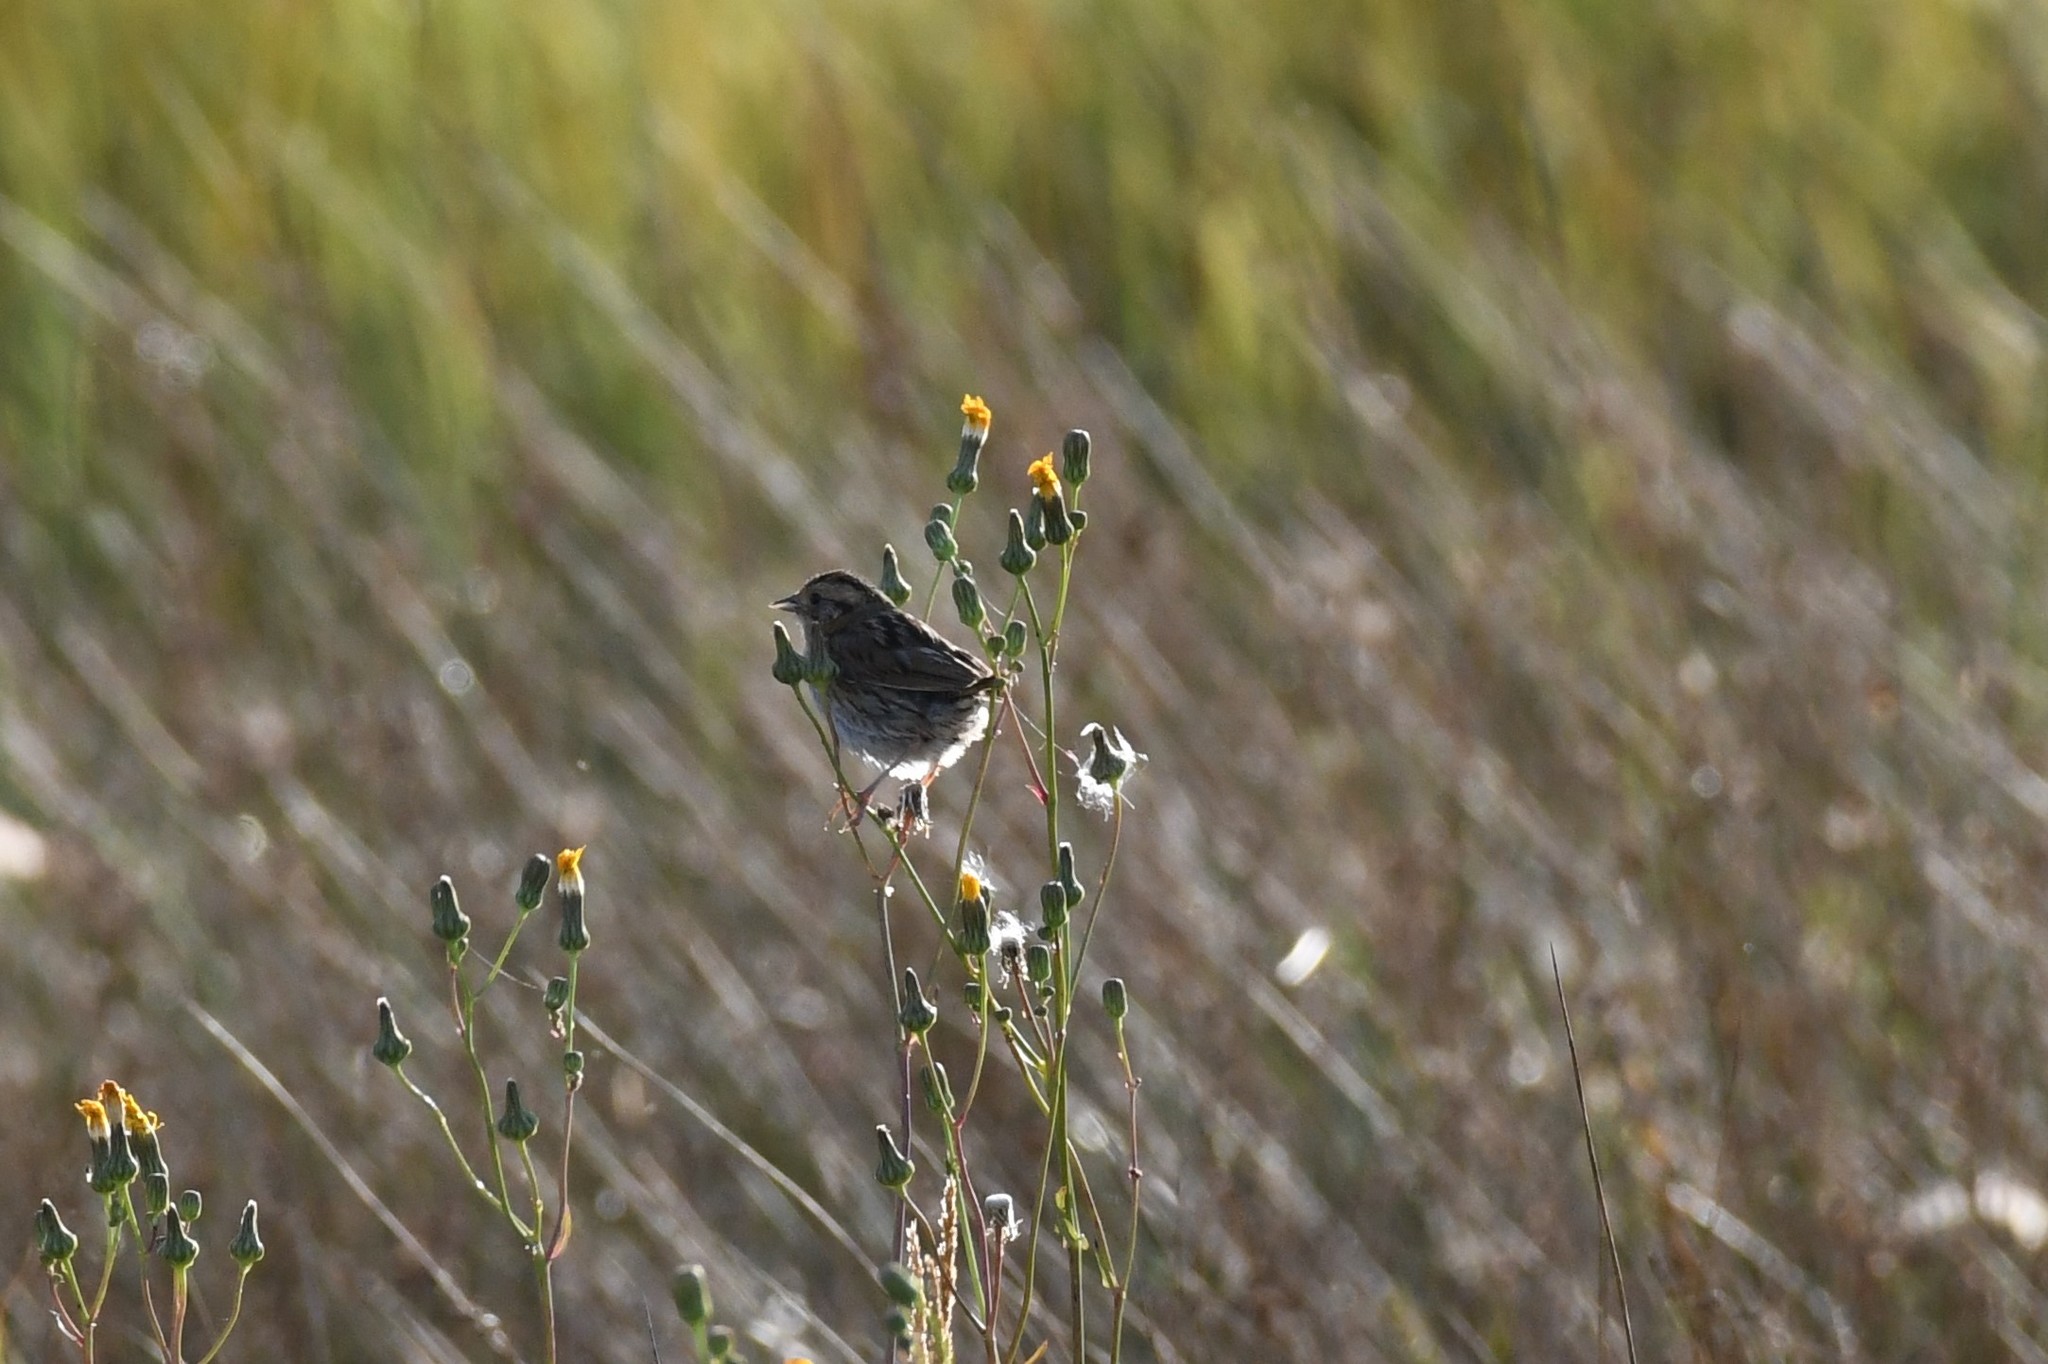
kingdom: Animalia
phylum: Chordata
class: Aves
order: Passeriformes
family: Passerellidae
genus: Ammospiza
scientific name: Ammospiza nelsoni
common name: Nelson's sparrow
